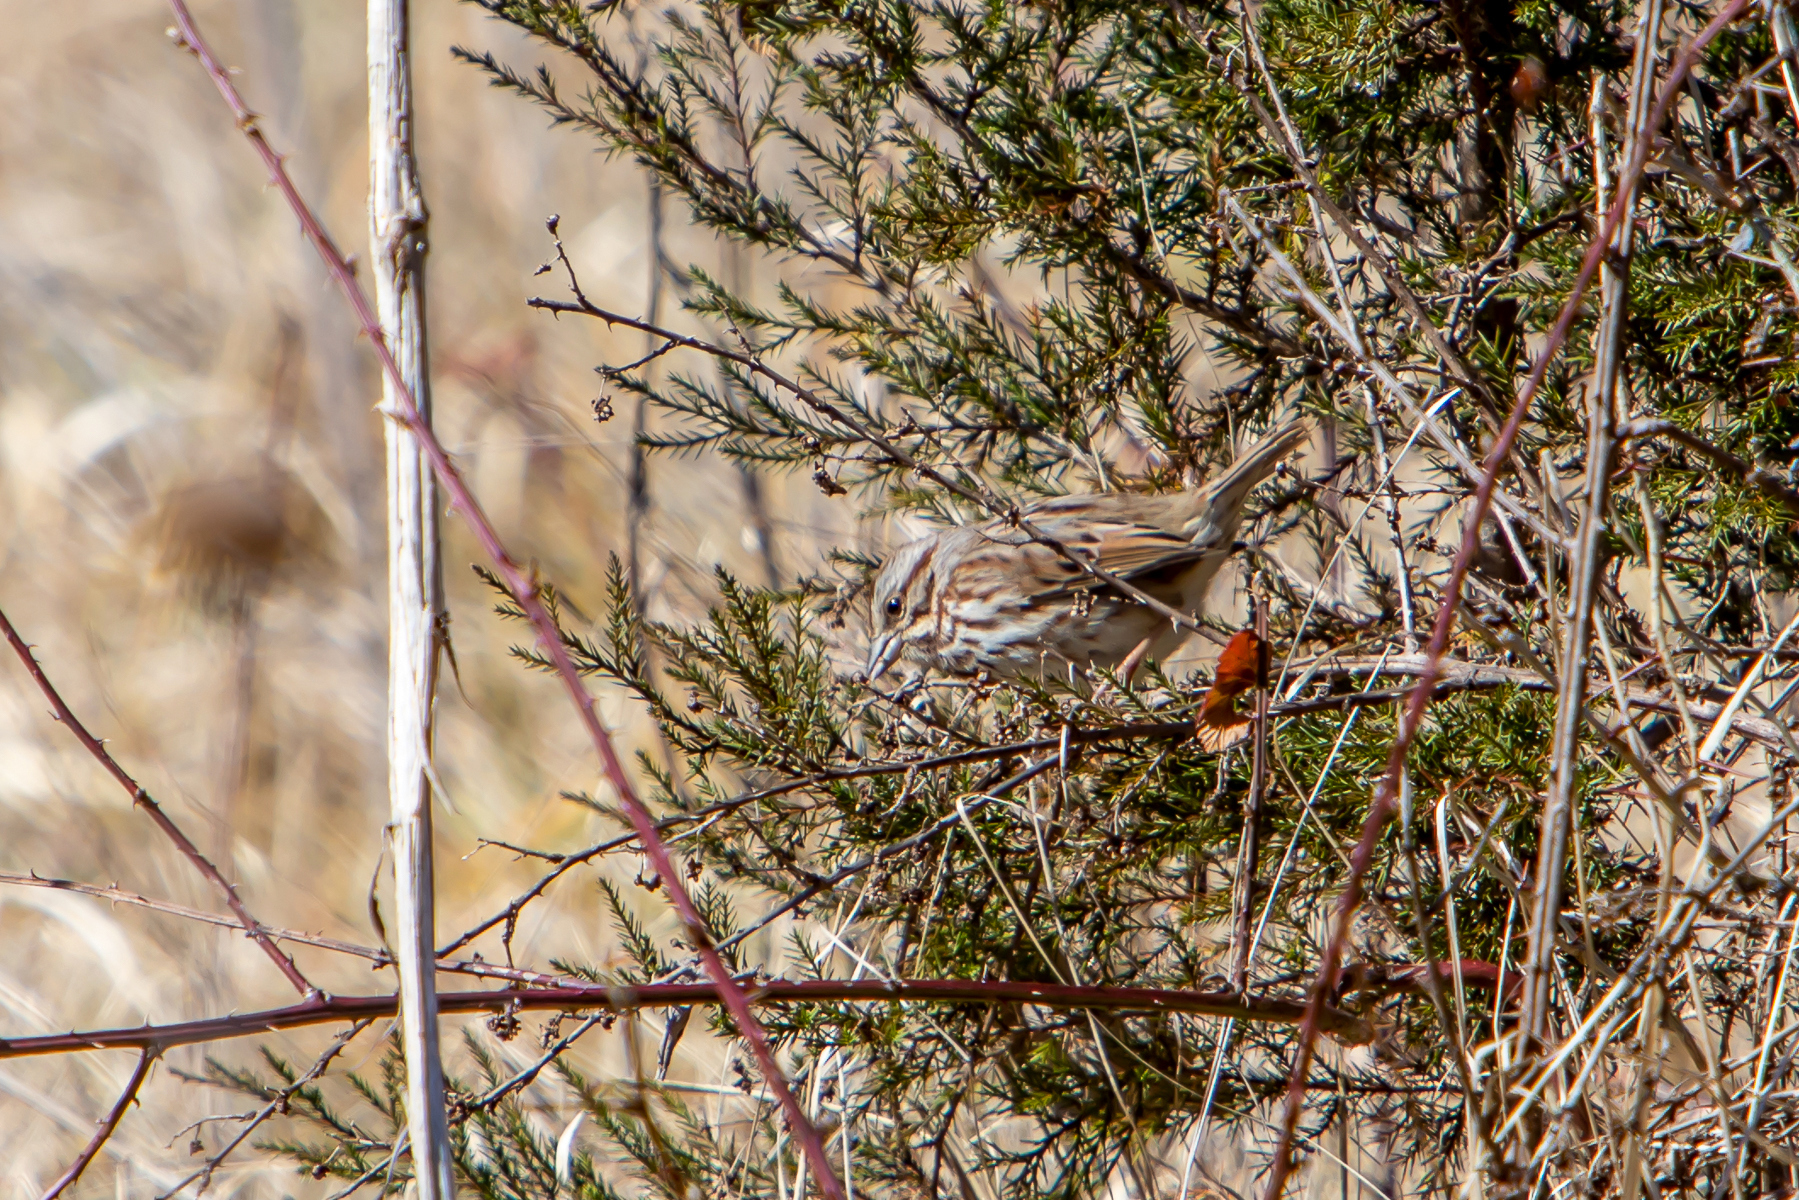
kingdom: Animalia
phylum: Chordata
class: Aves
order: Passeriformes
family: Passerellidae
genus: Melospiza
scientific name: Melospiza melodia
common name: Song sparrow
